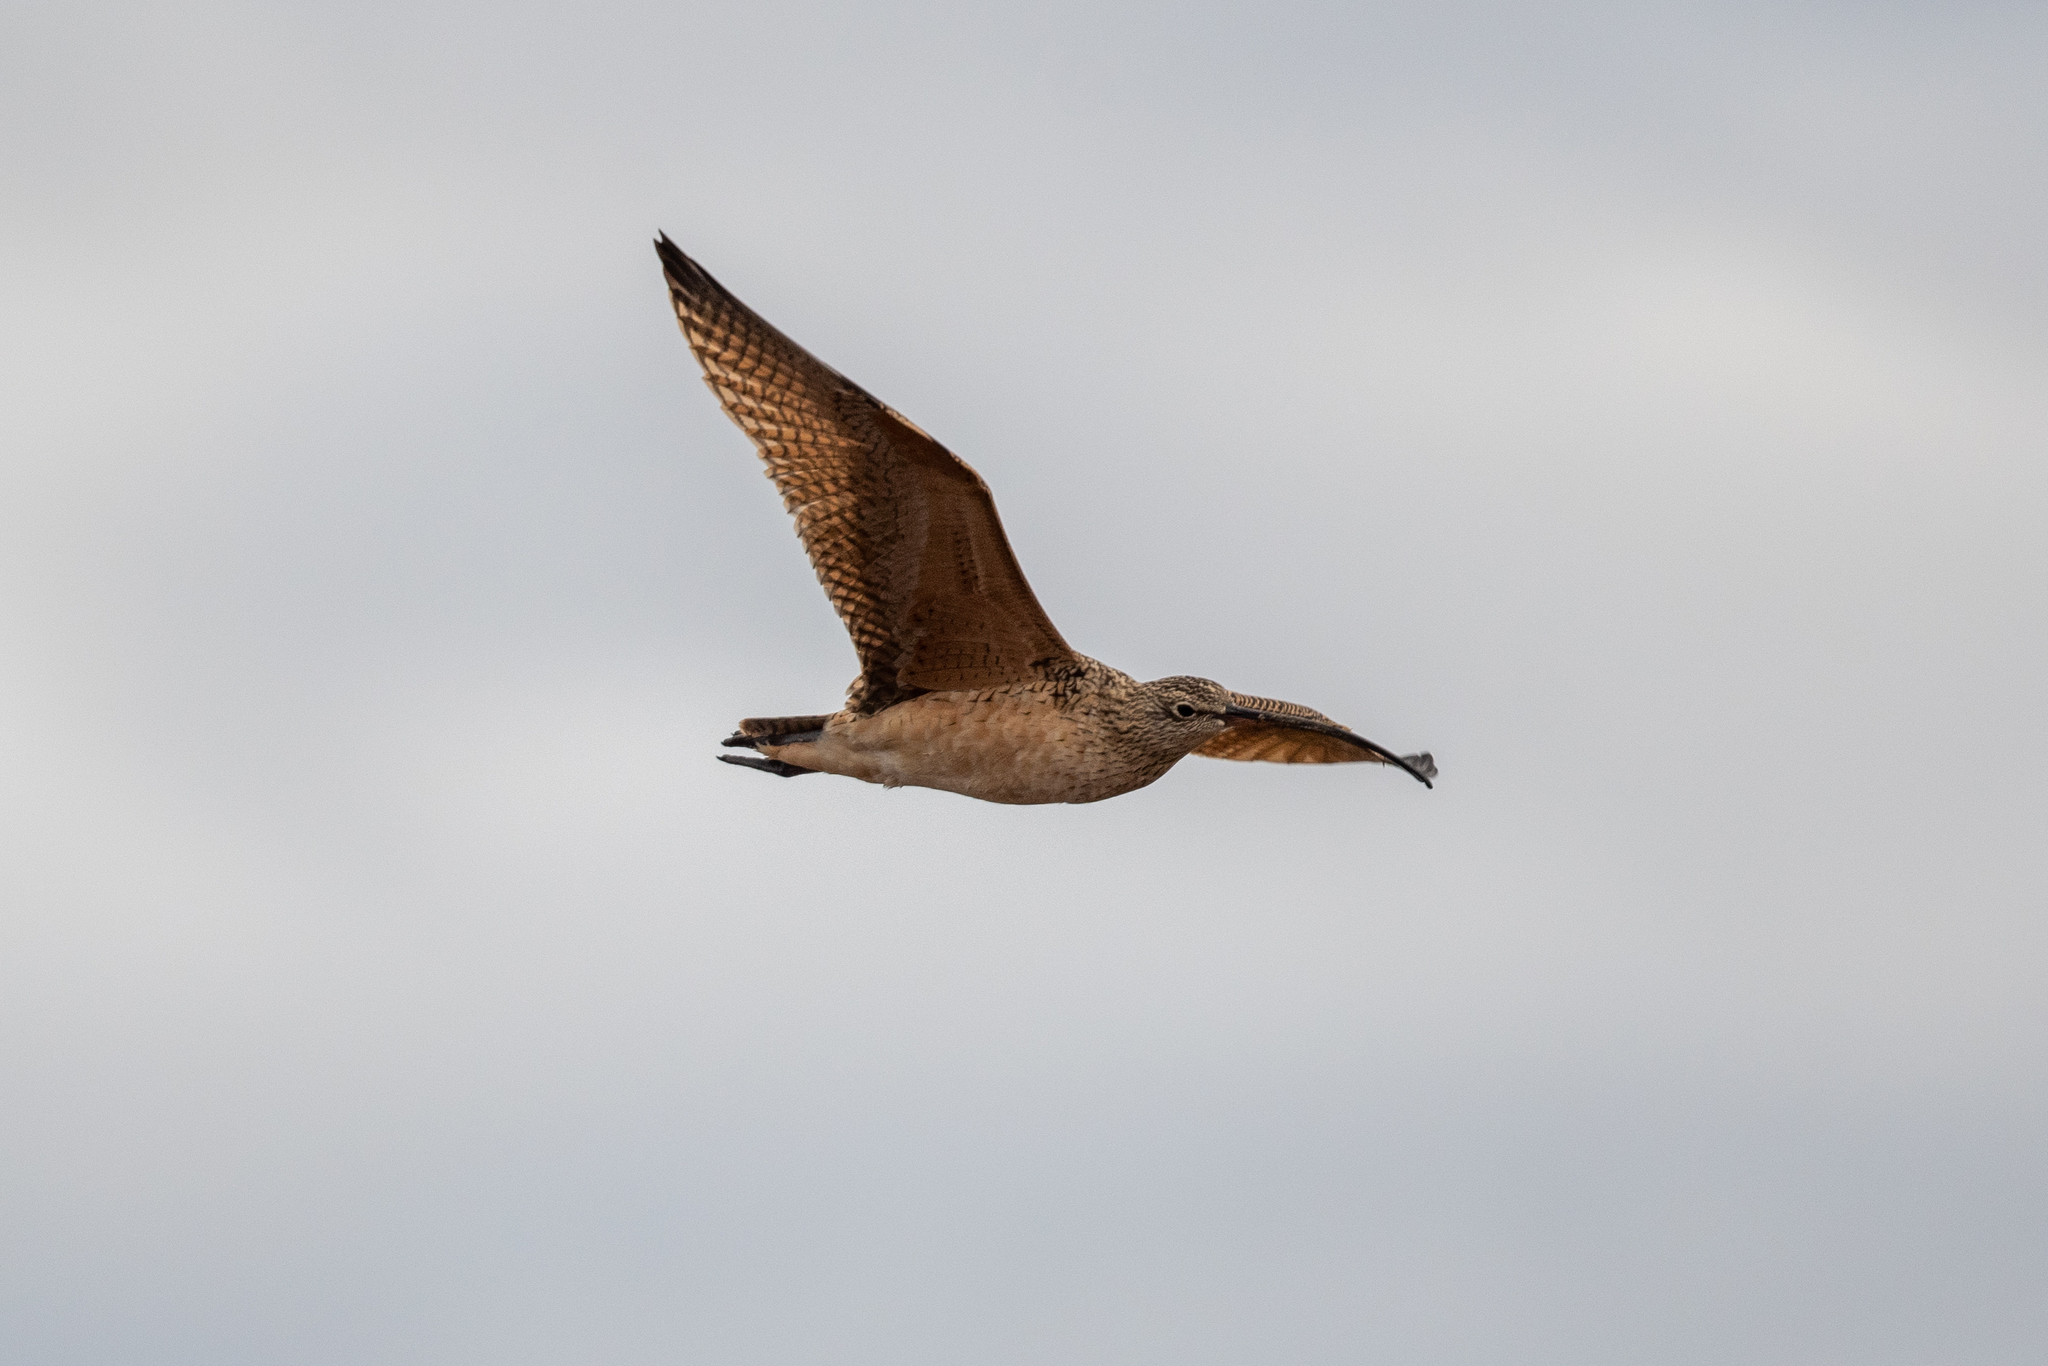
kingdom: Animalia
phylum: Chordata
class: Aves
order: Charadriiformes
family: Scolopacidae
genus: Numenius
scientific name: Numenius americanus
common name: Long-billed curlew
